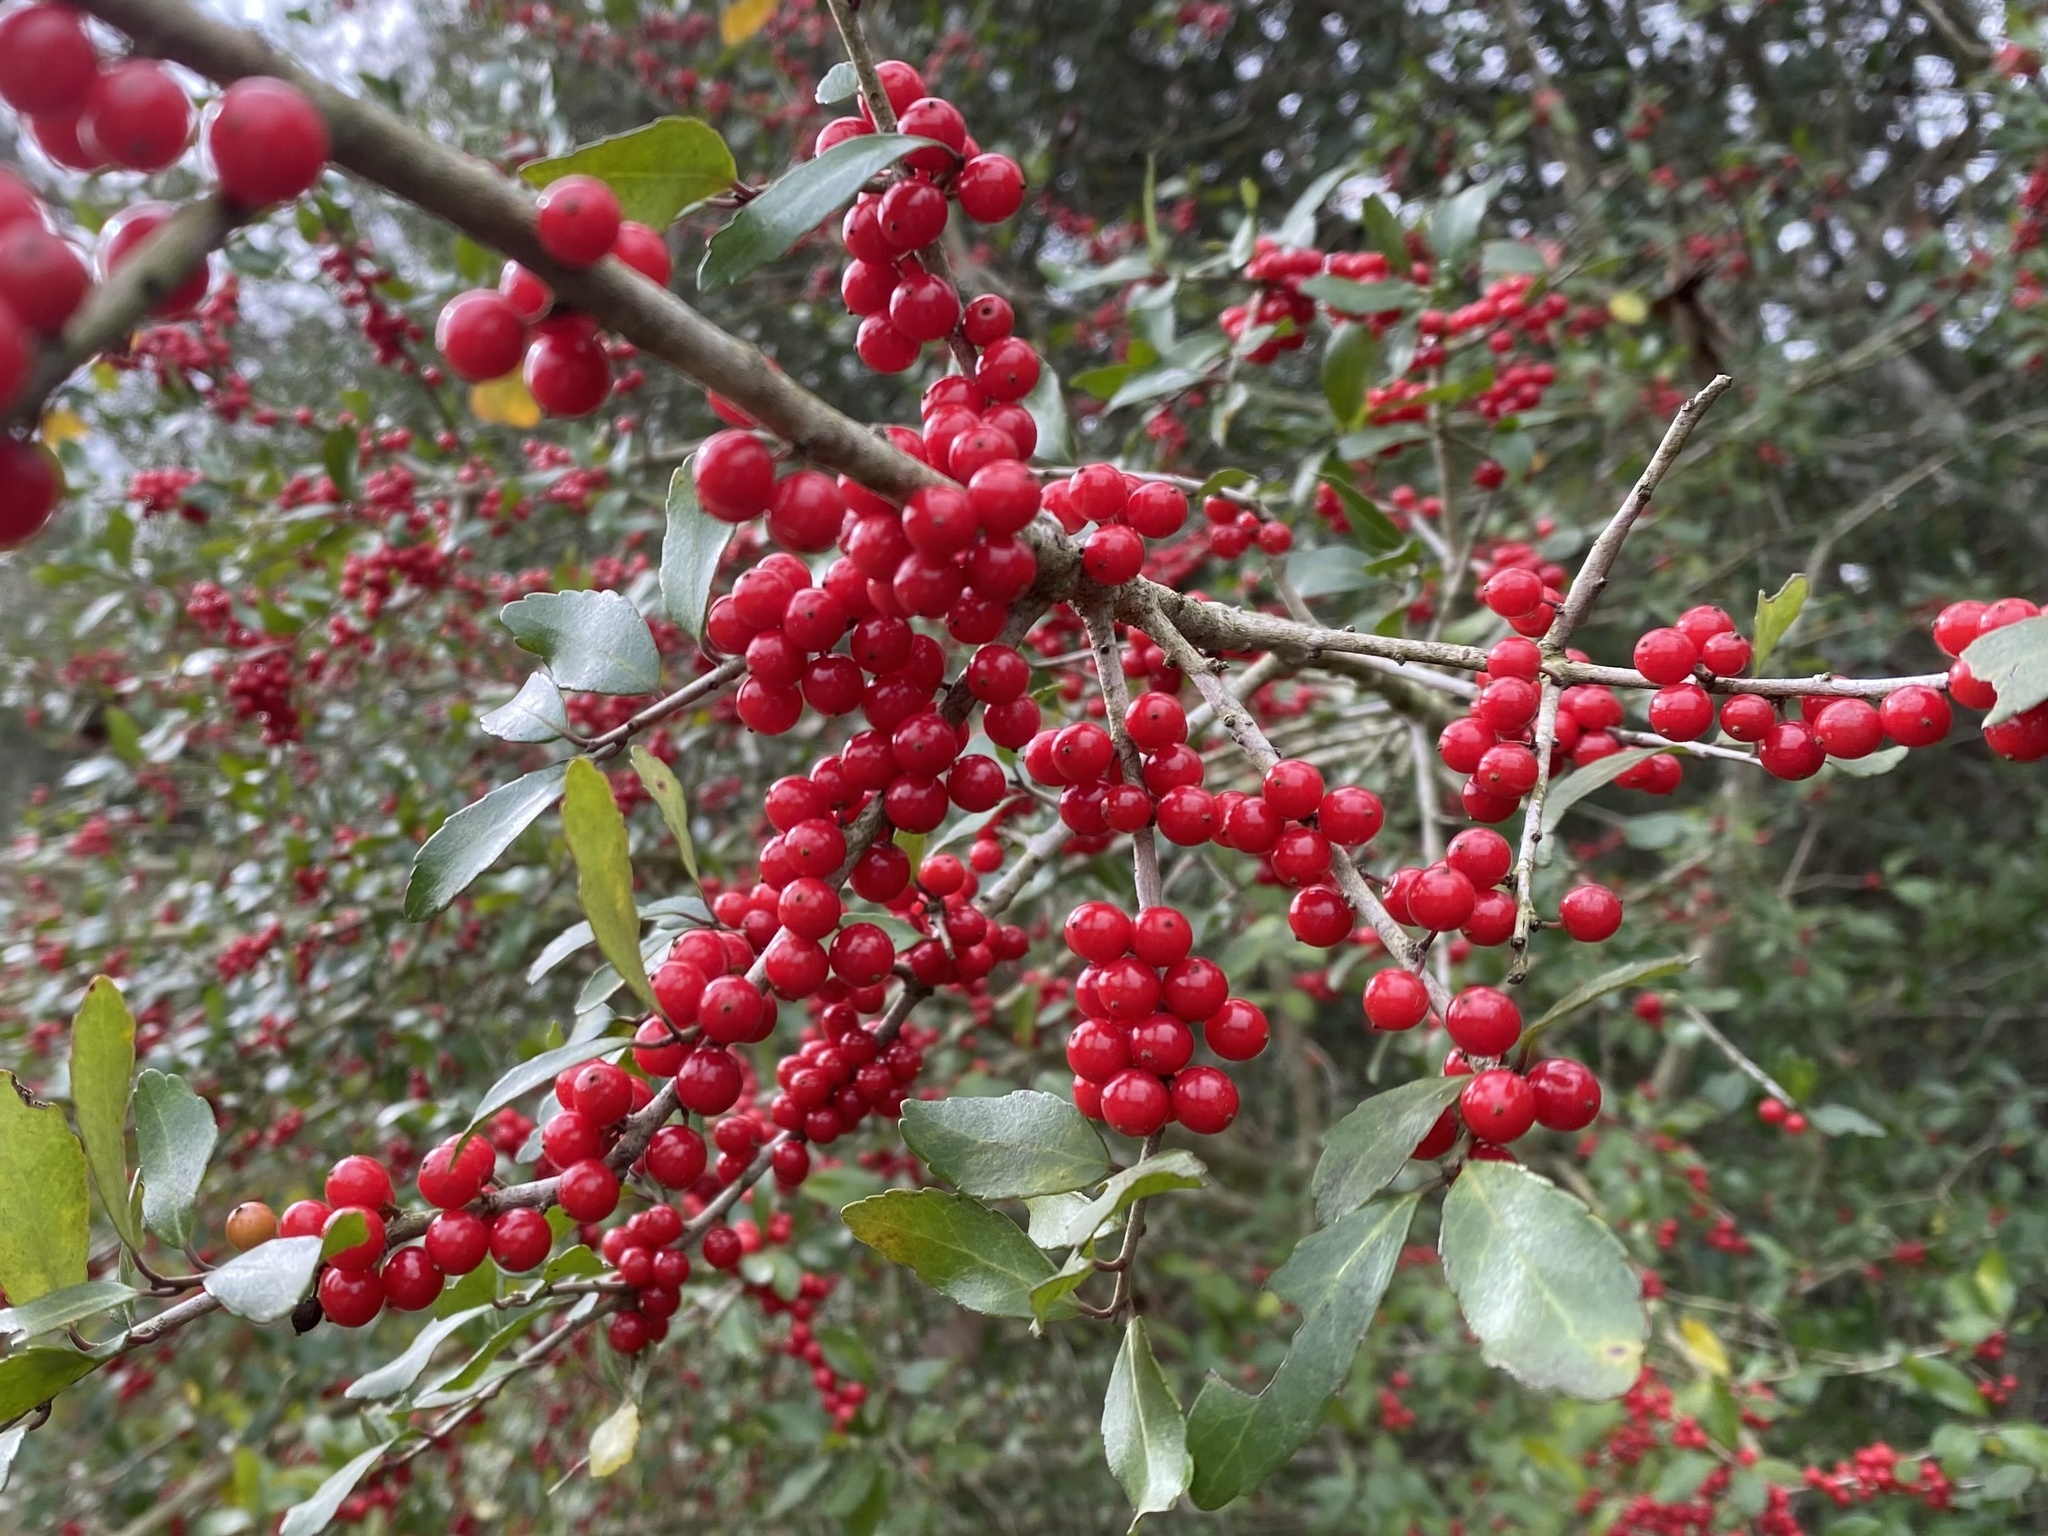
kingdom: Plantae
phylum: Tracheophyta
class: Magnoliopsida
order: Aquifoliales
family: Aquifoliaceae
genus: Ilex
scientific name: Ilex vomitoria
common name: Yaupon holly
